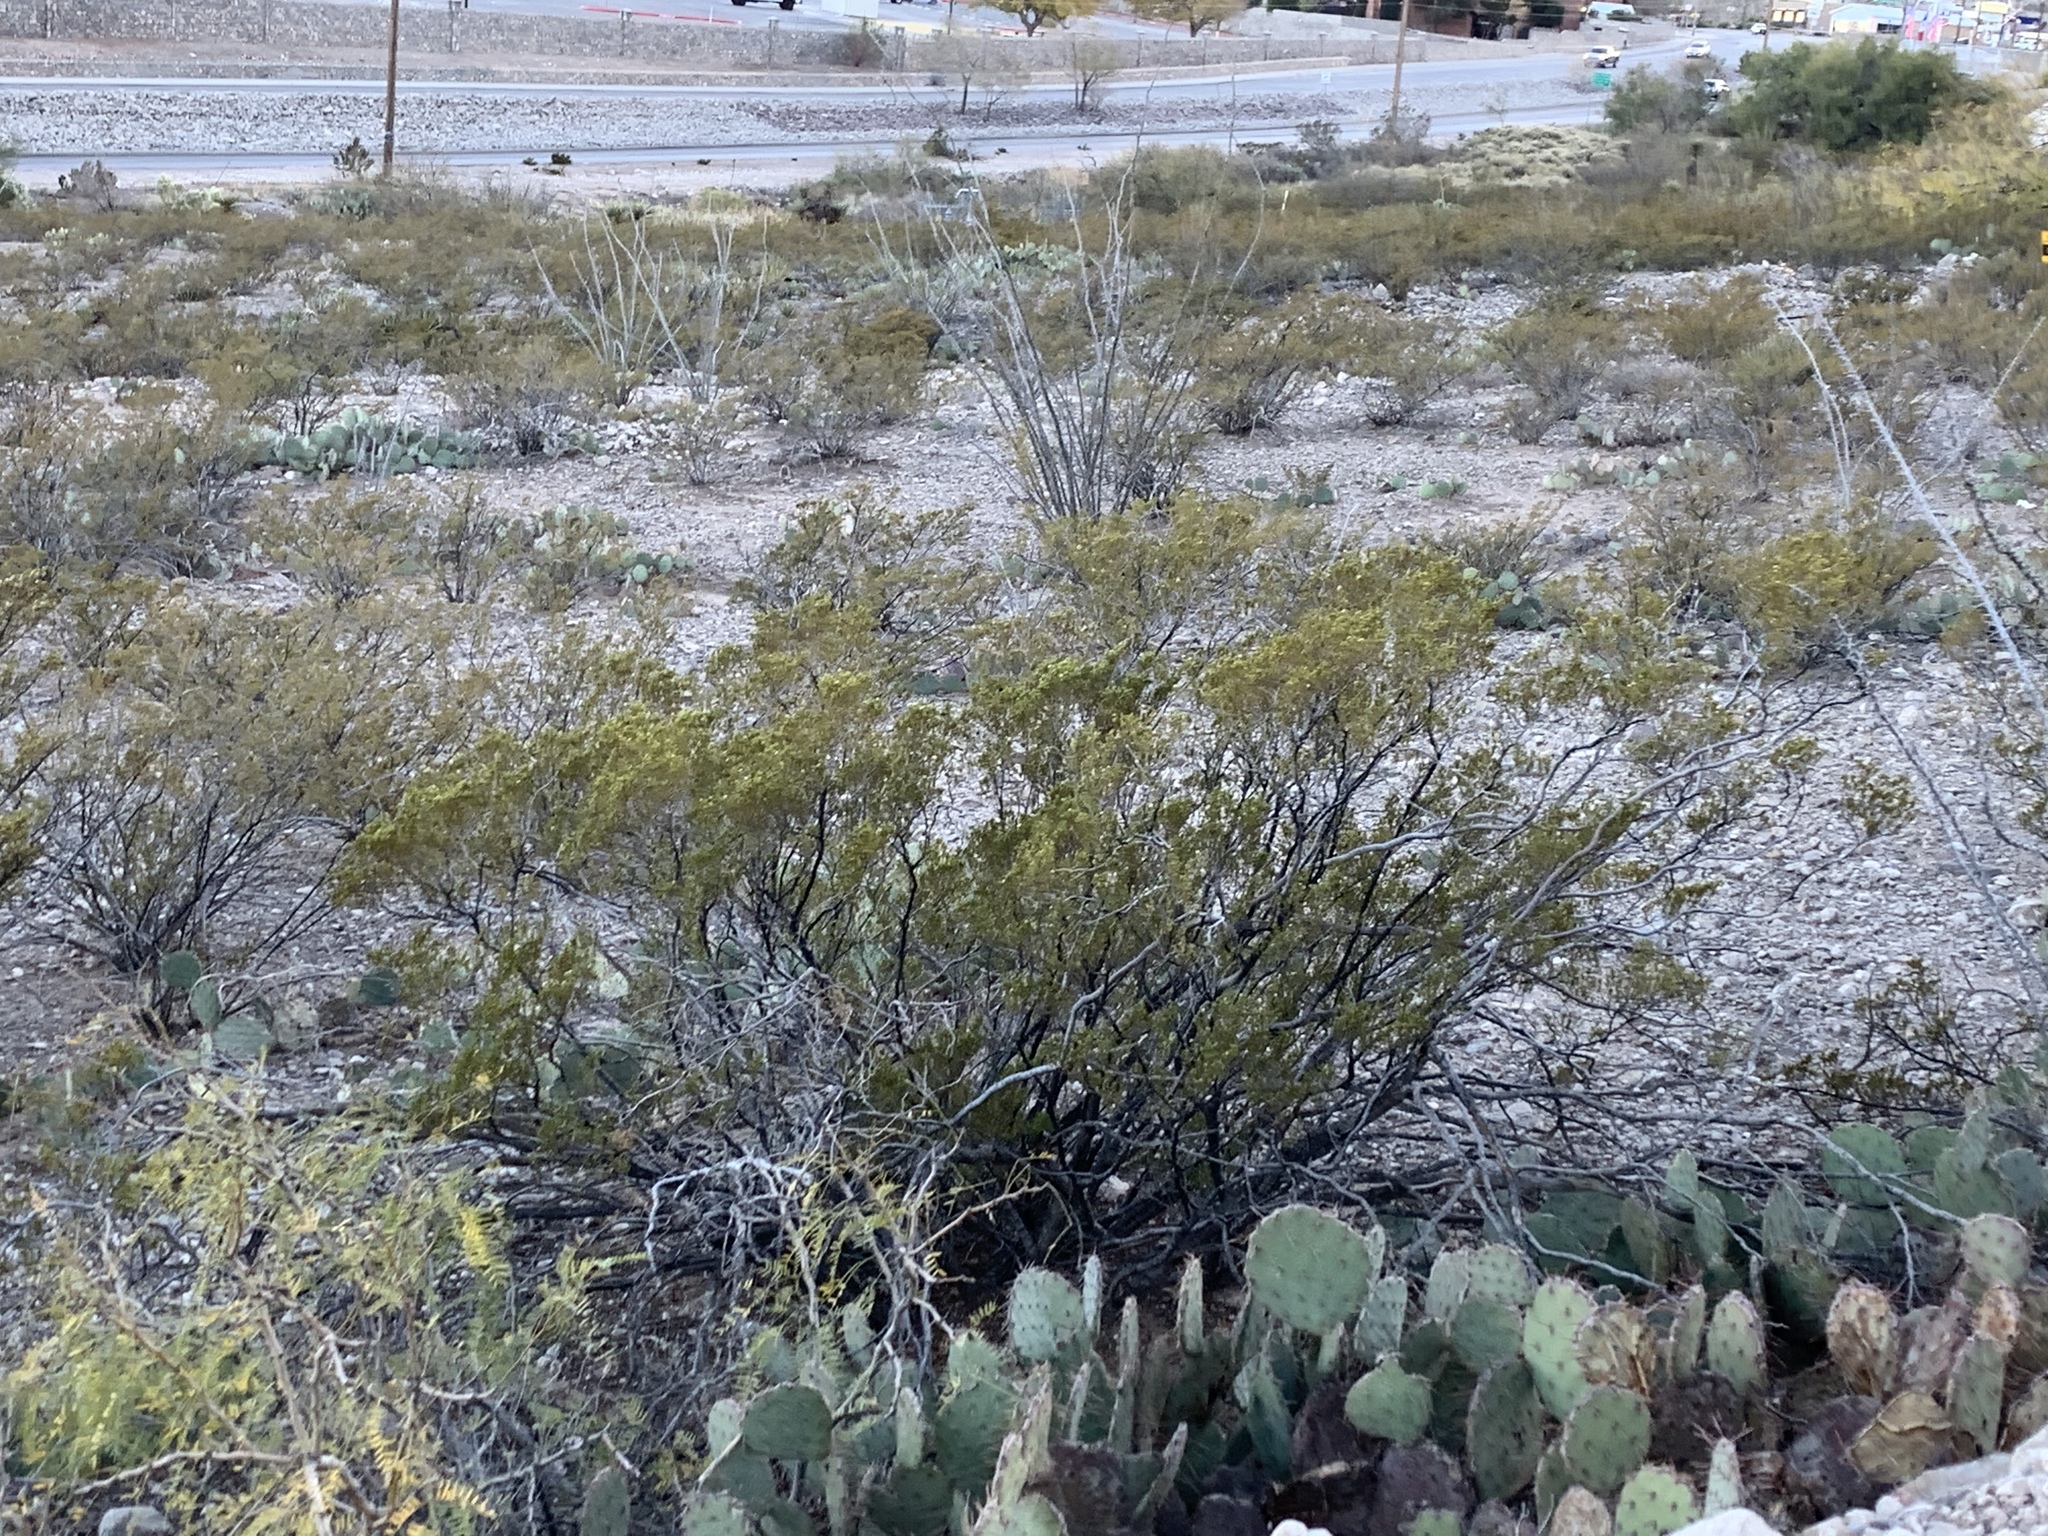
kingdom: Plantae
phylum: Tracheophyta
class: Magnoliopsida
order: Zygophyllales
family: Zygophyllaceae
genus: Larrea
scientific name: Larrea tridentata
